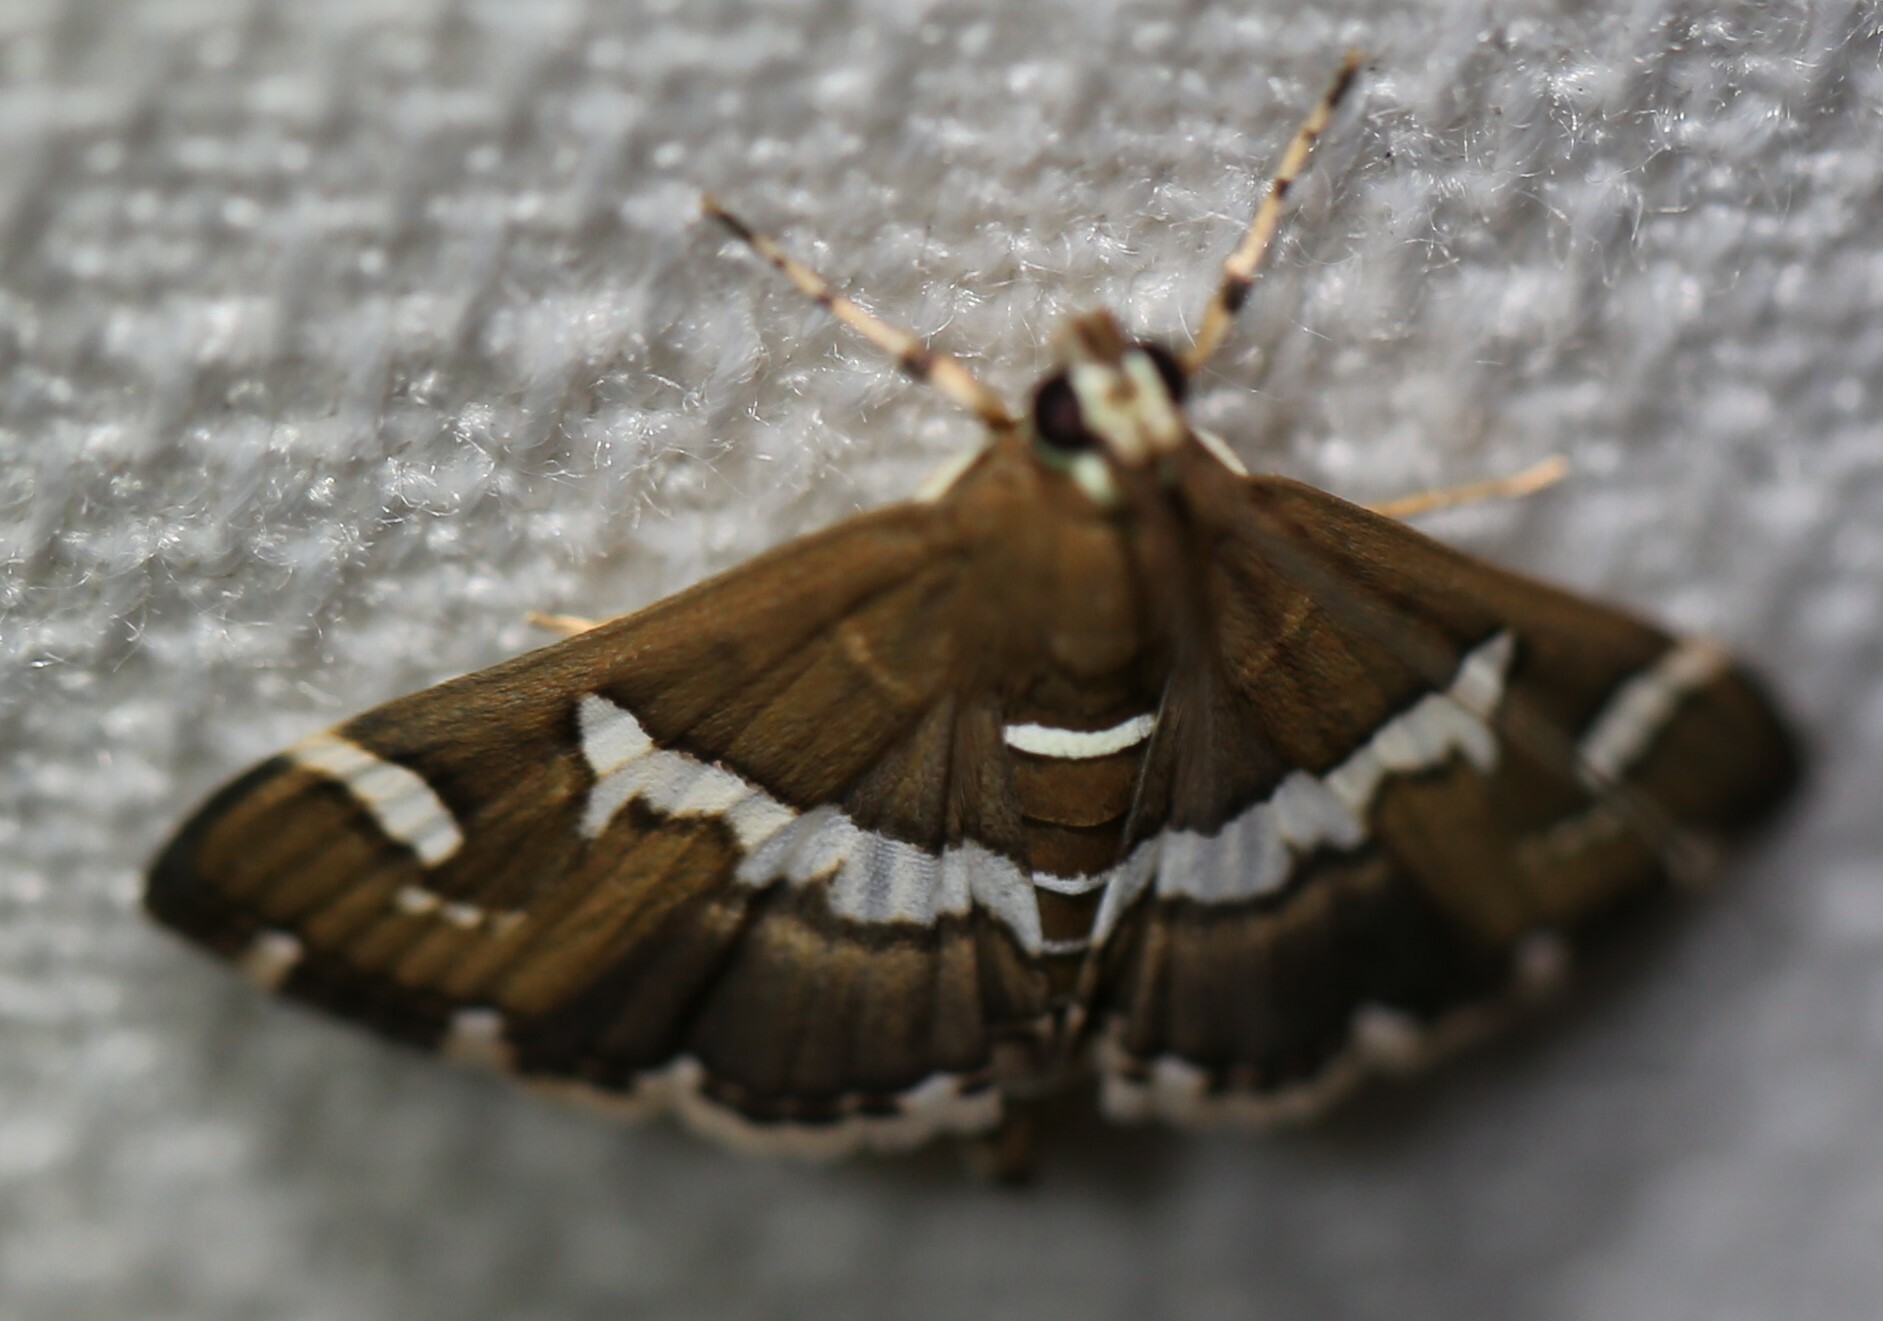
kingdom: Animalia
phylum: Arthropoda
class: Insecta
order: Lepidoptera
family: Crambidae
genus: Spoladea
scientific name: Spoladea recurvalis
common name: Beet webworm moth
